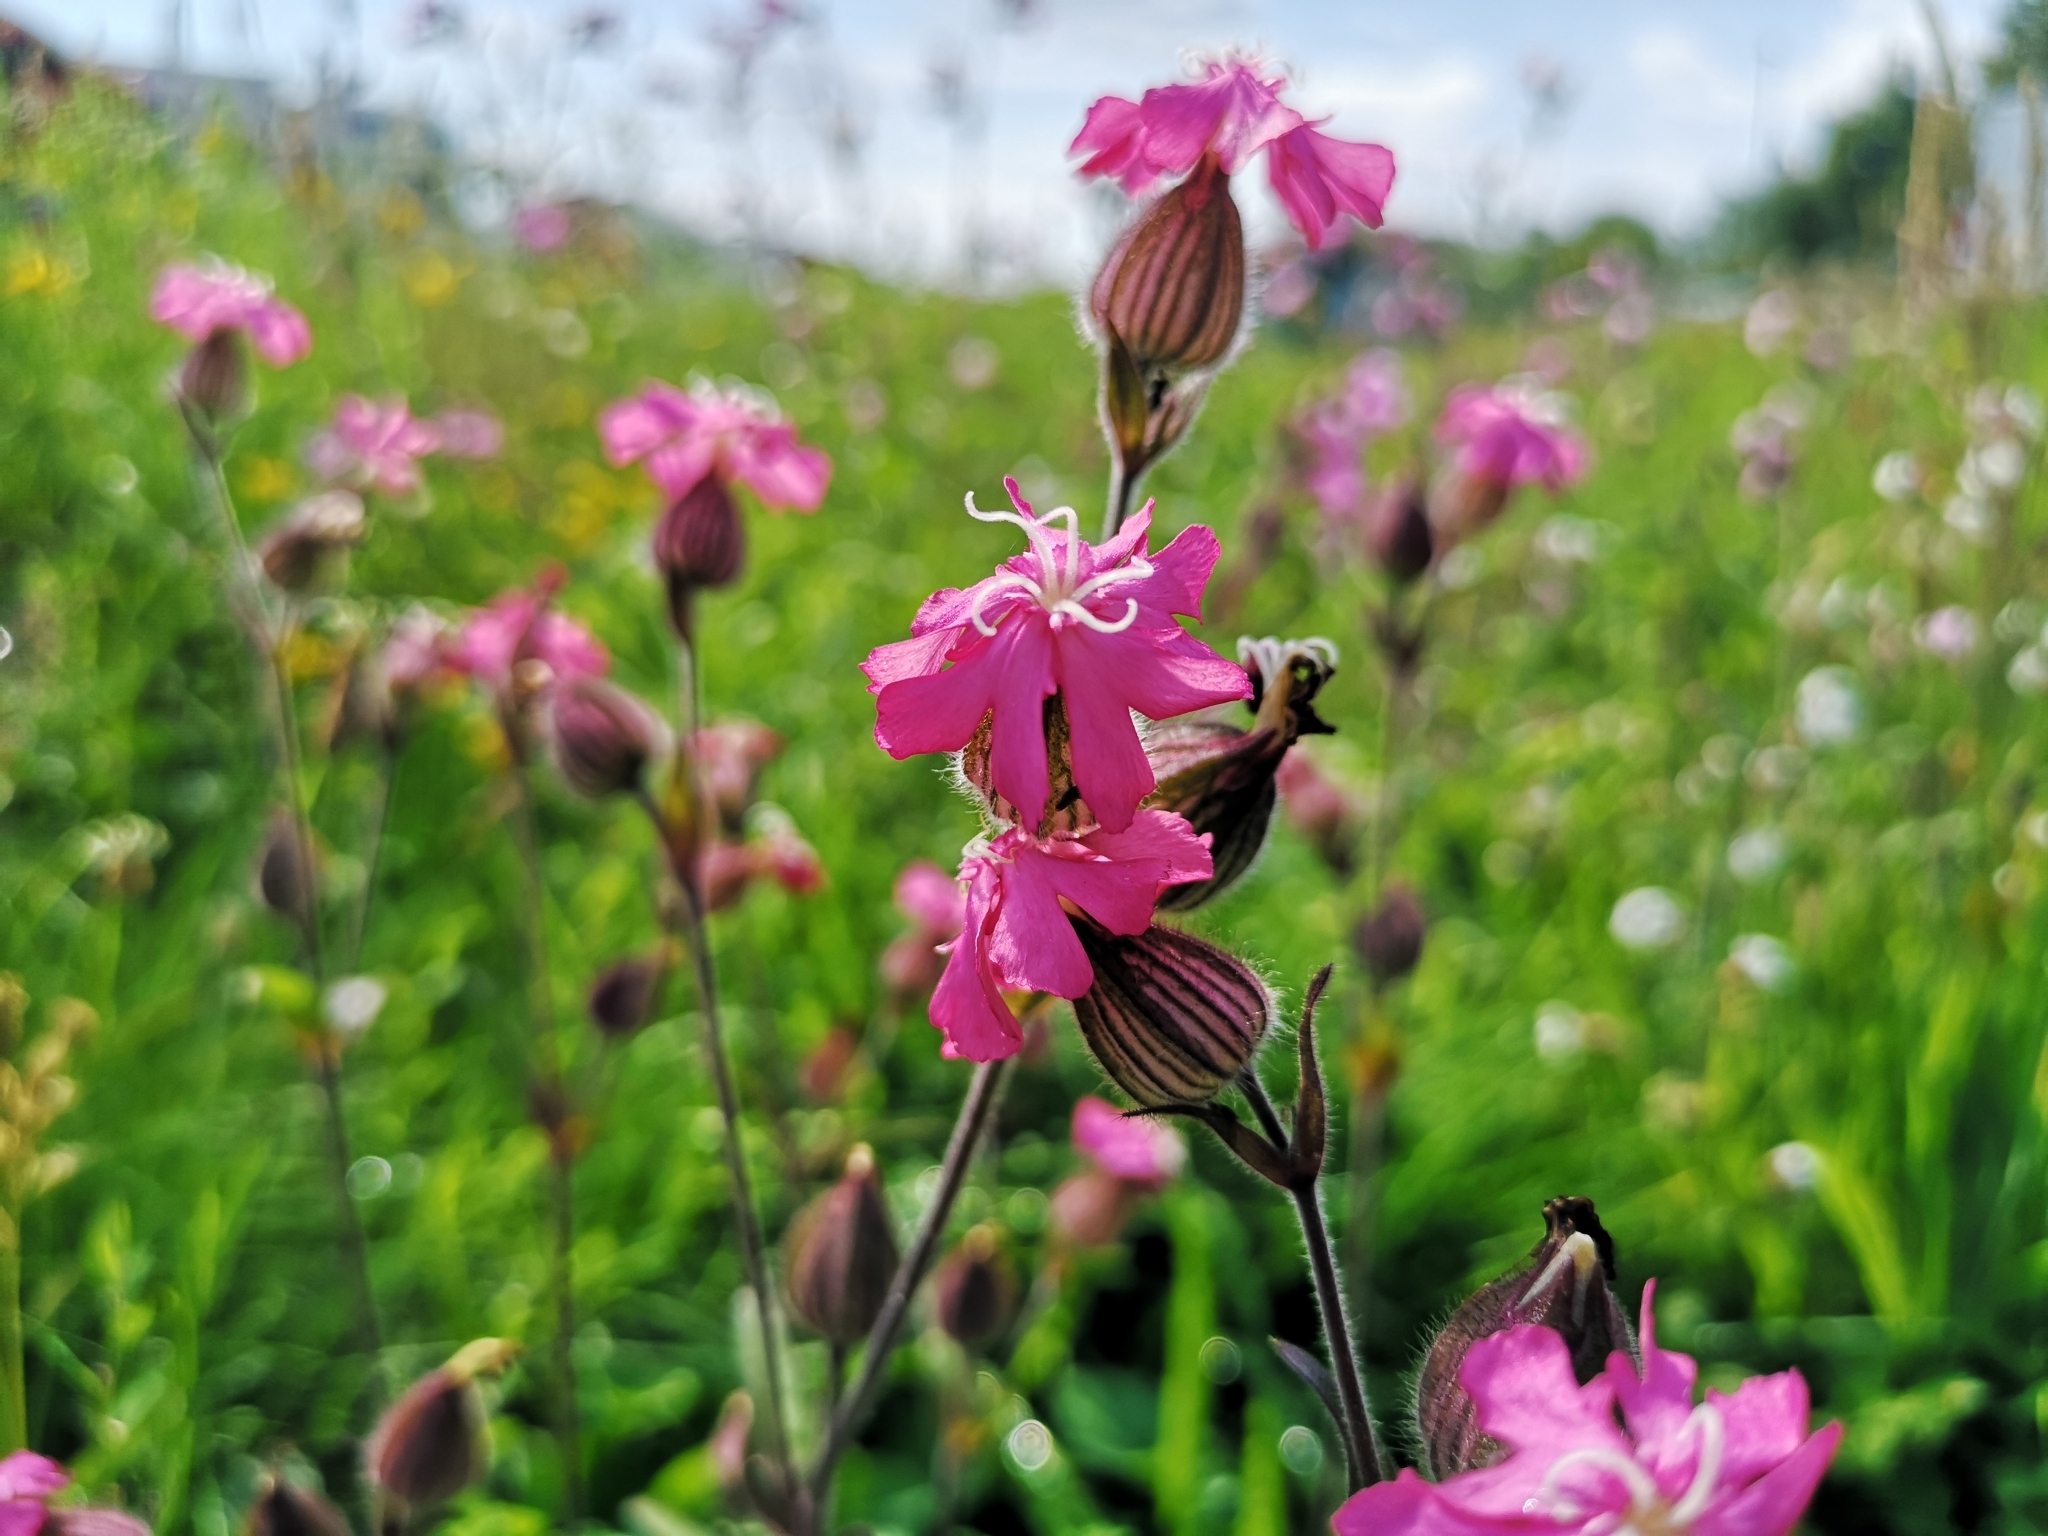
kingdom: Plantae
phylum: Tracheophyta
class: Magnoliopsida
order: Caryophyllales
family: Caryophyllaceae
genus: Silene
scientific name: Silene dioica
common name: Red campion
